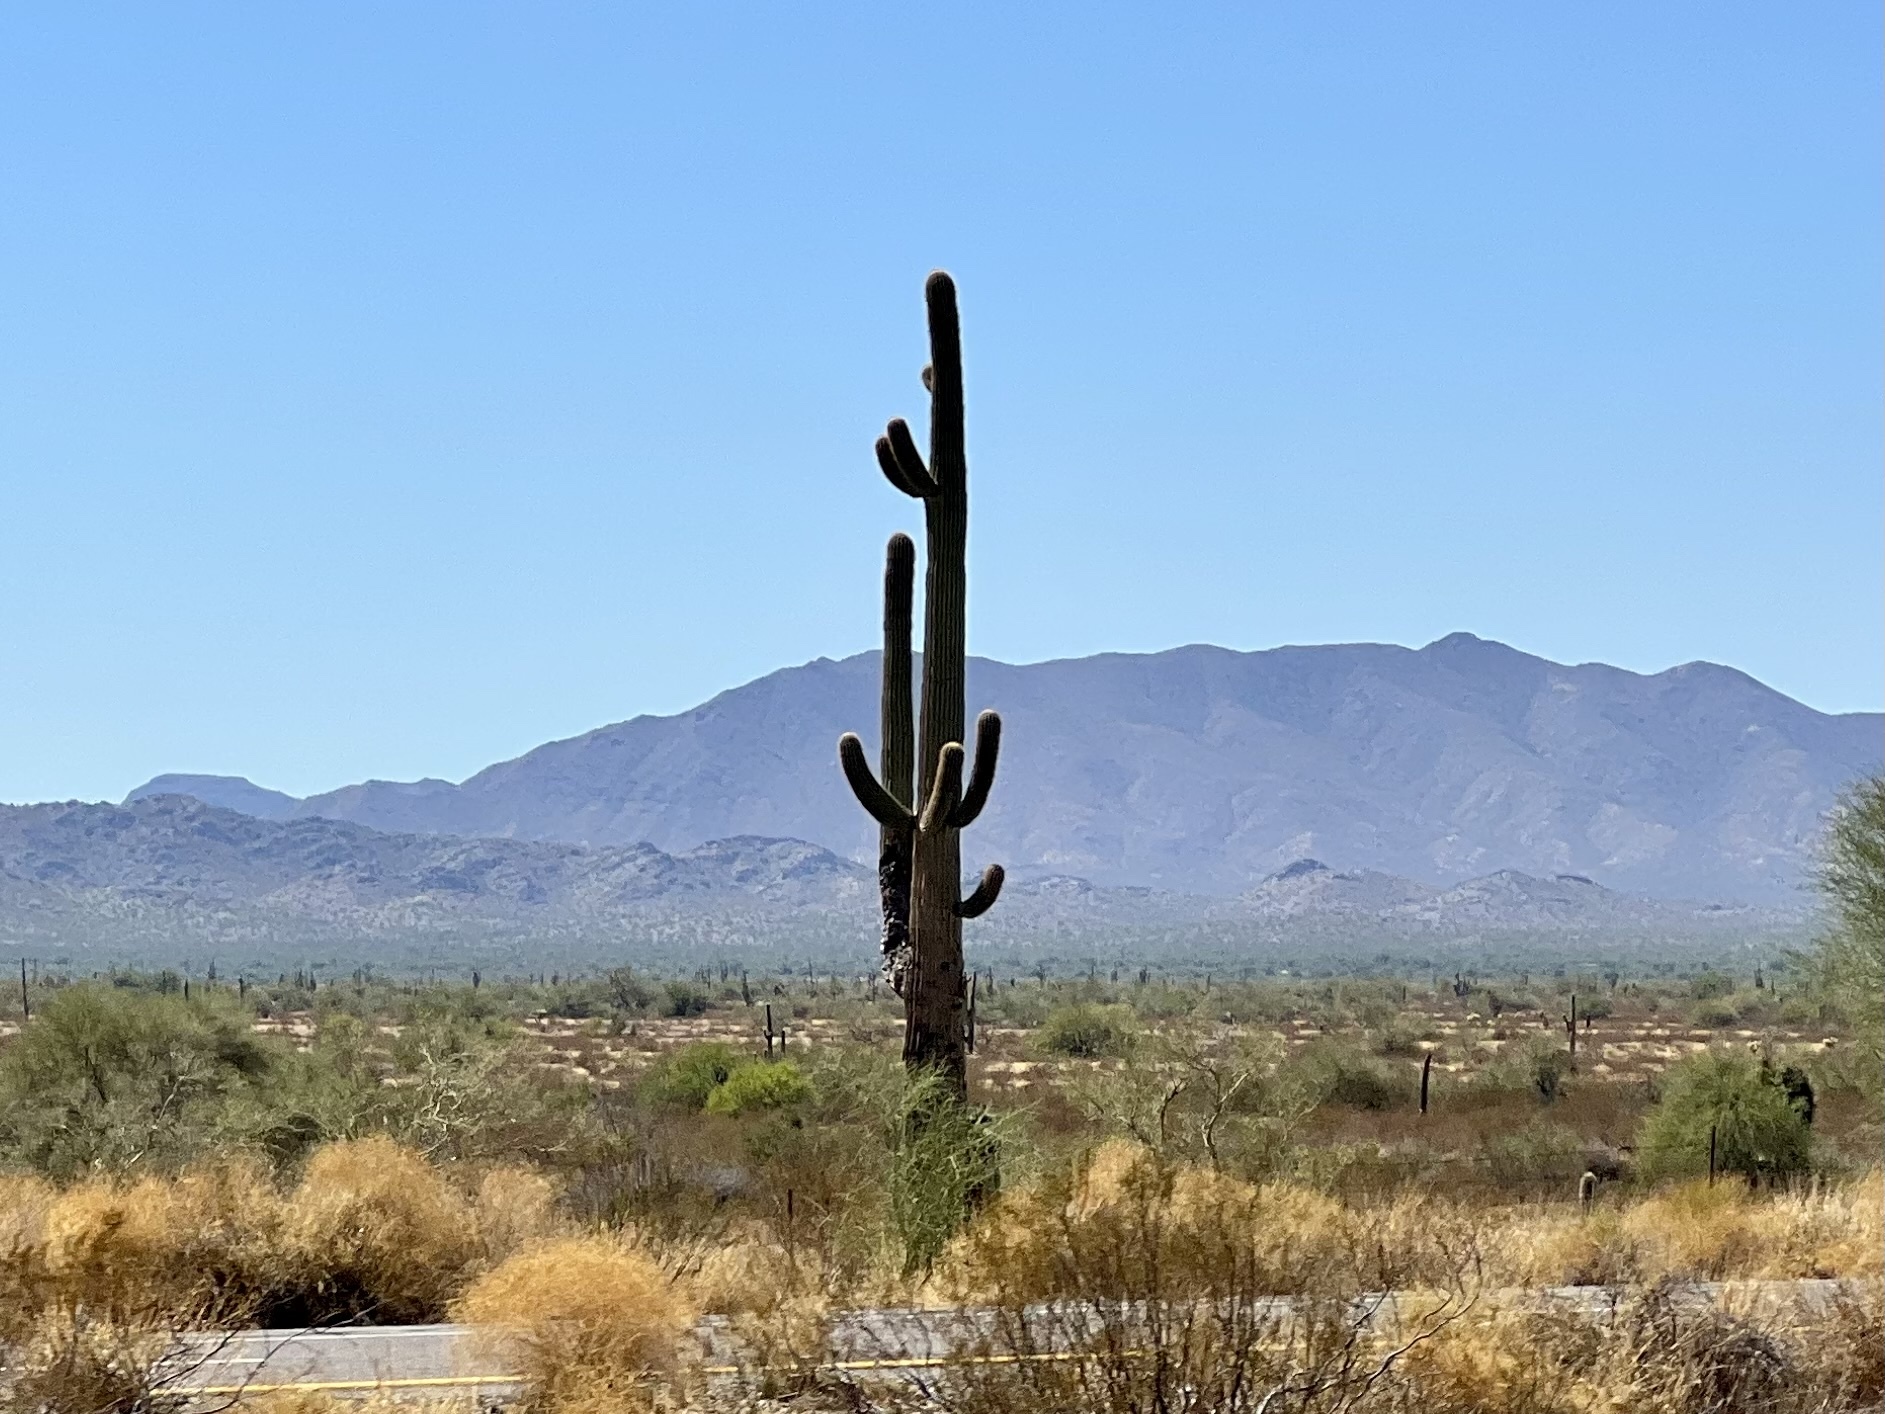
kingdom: Plantae
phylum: Tracheophyta
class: Magnoliopsida
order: Caryophyllales
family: Cactaceae
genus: Carnegiea
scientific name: Carnegiea gigantea
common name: Saguaro
